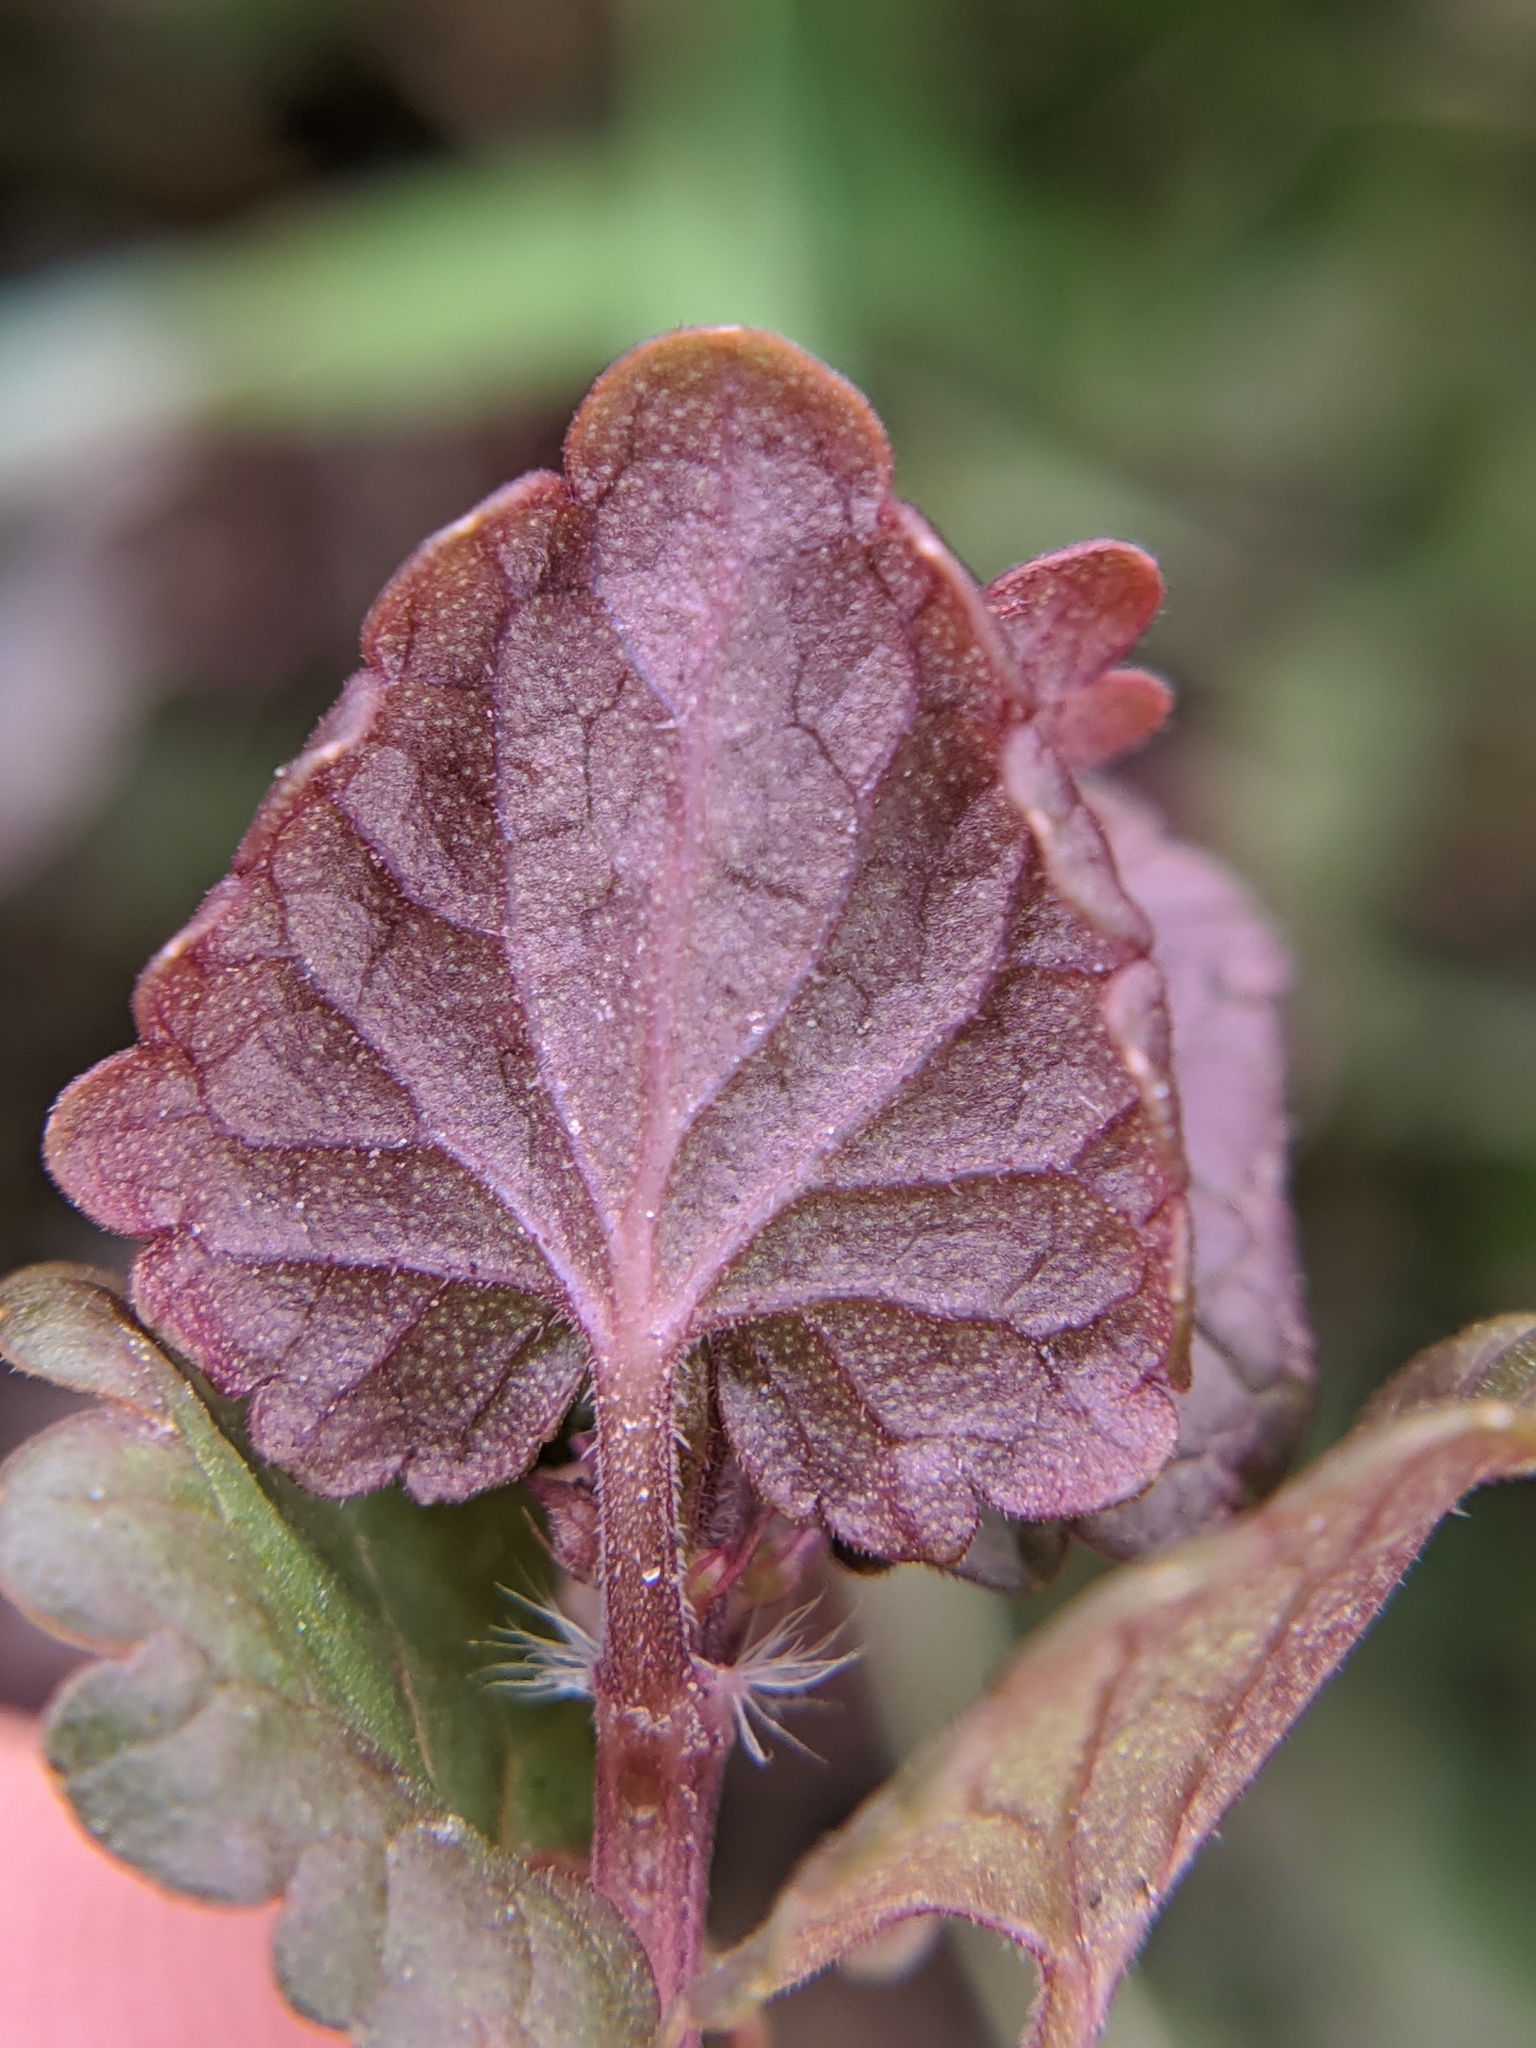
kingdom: Plantae
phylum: Tracheophyta
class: Magnoliopsida
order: Lamiales
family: Lamiaceae
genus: Glechoma
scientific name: Glechoma hederacea
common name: Ground ivy
